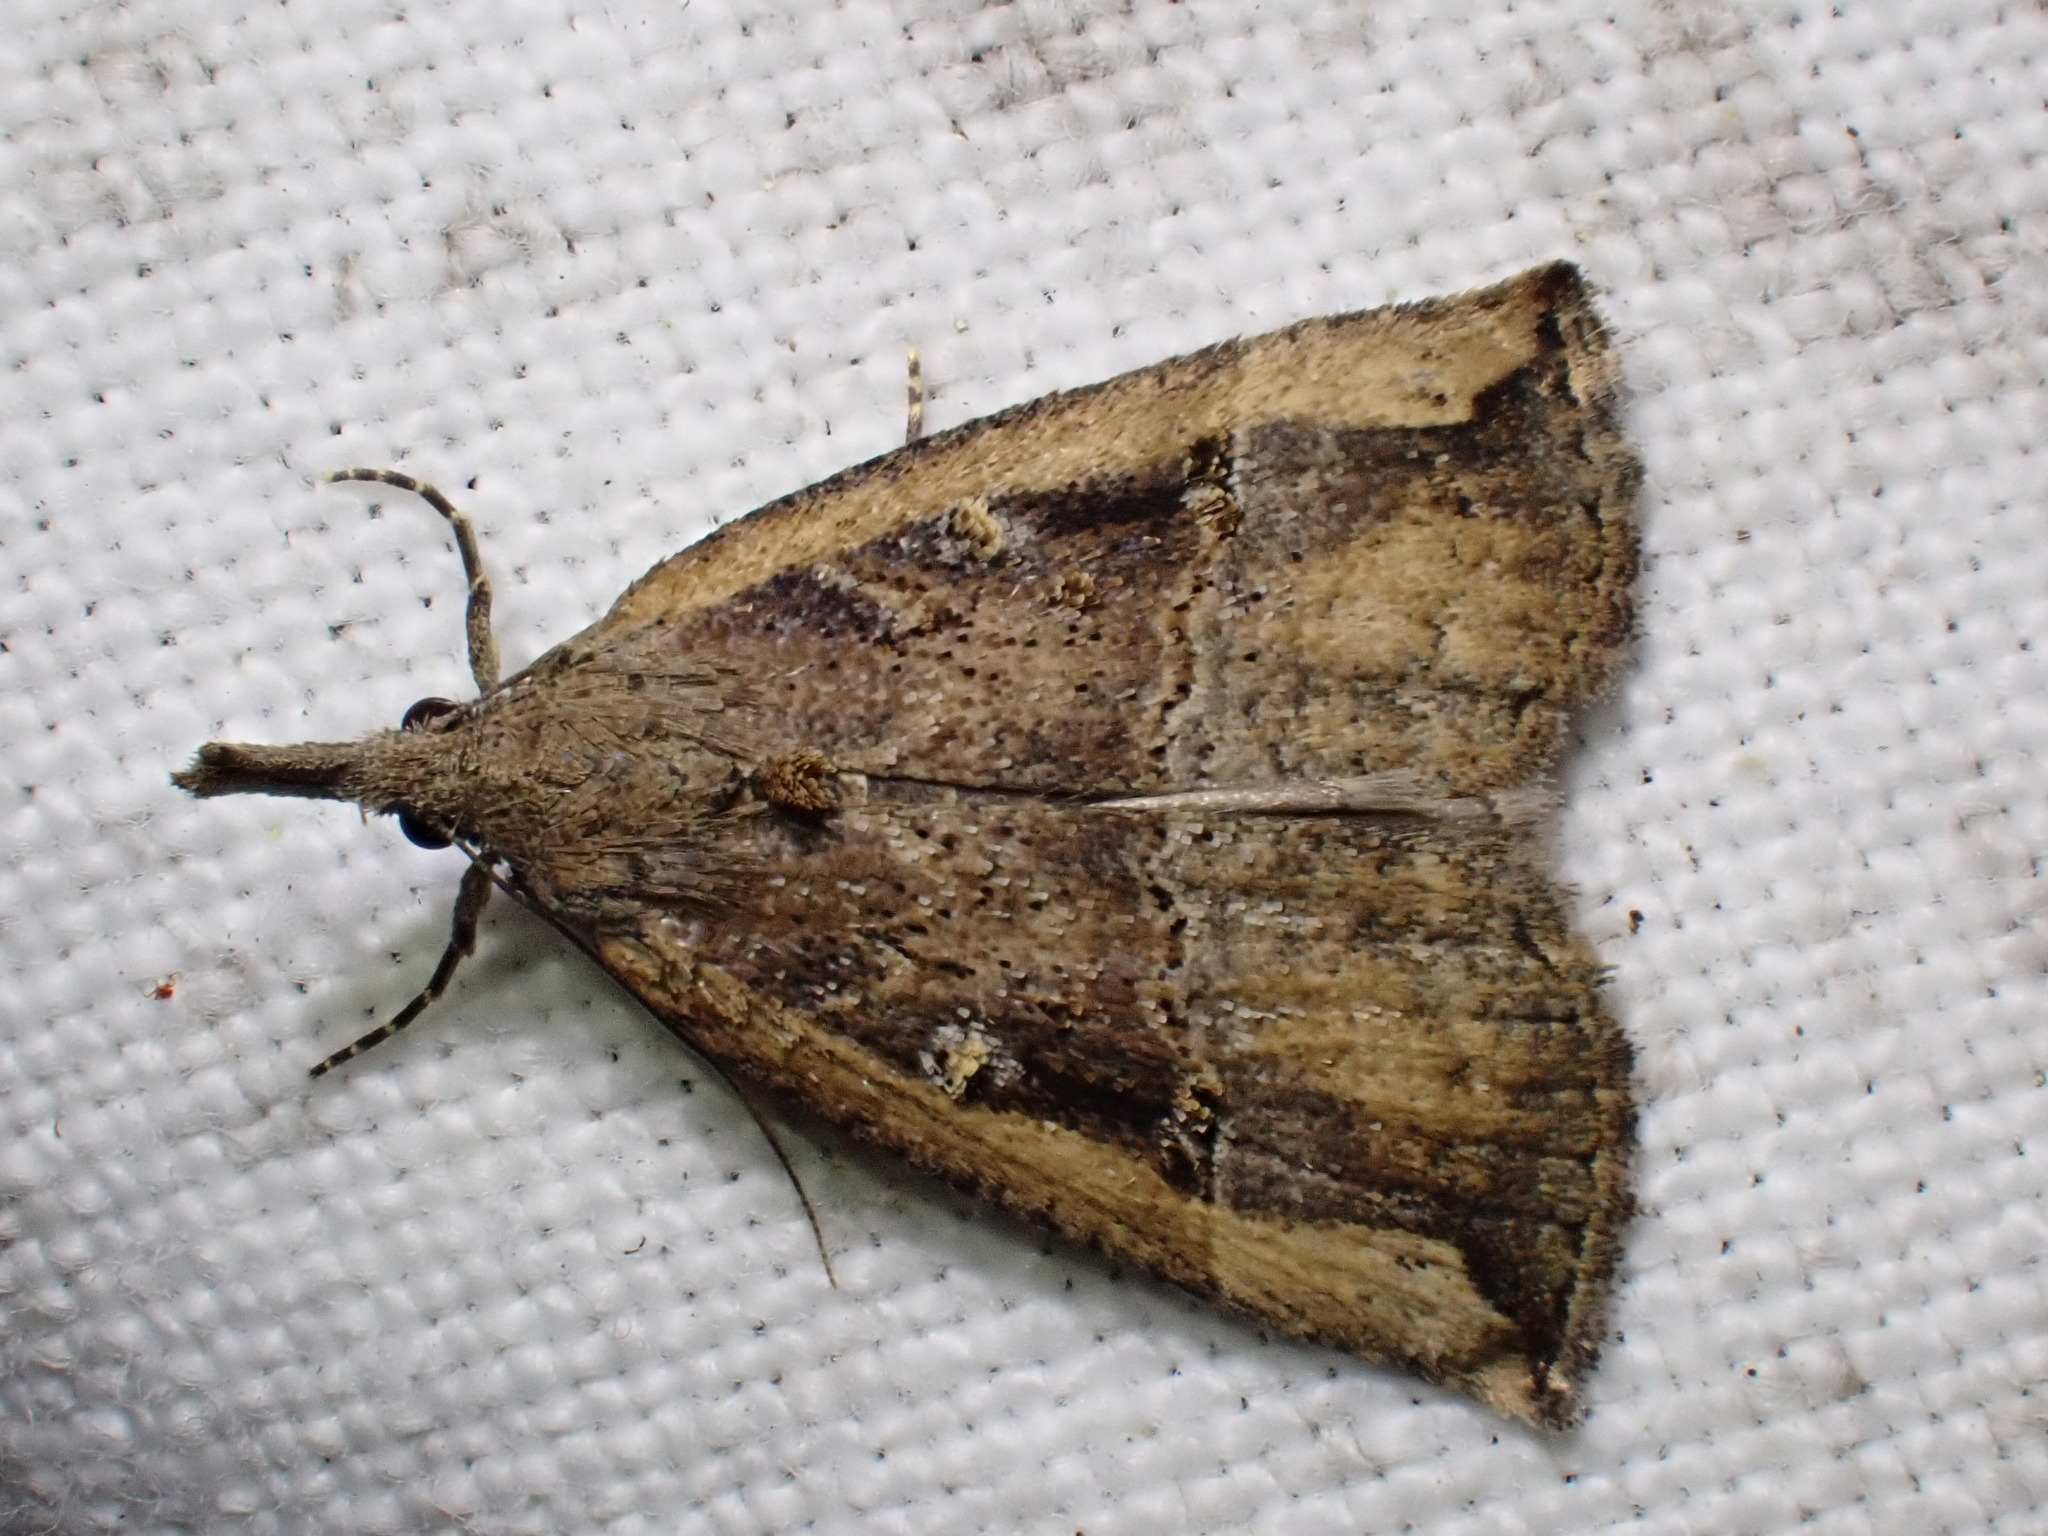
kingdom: Animalia
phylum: Arthropoda
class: Insecta
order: Lepidoptera
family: Erebidae
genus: Hypena
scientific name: Hypena rostralis
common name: Buttoned snout
